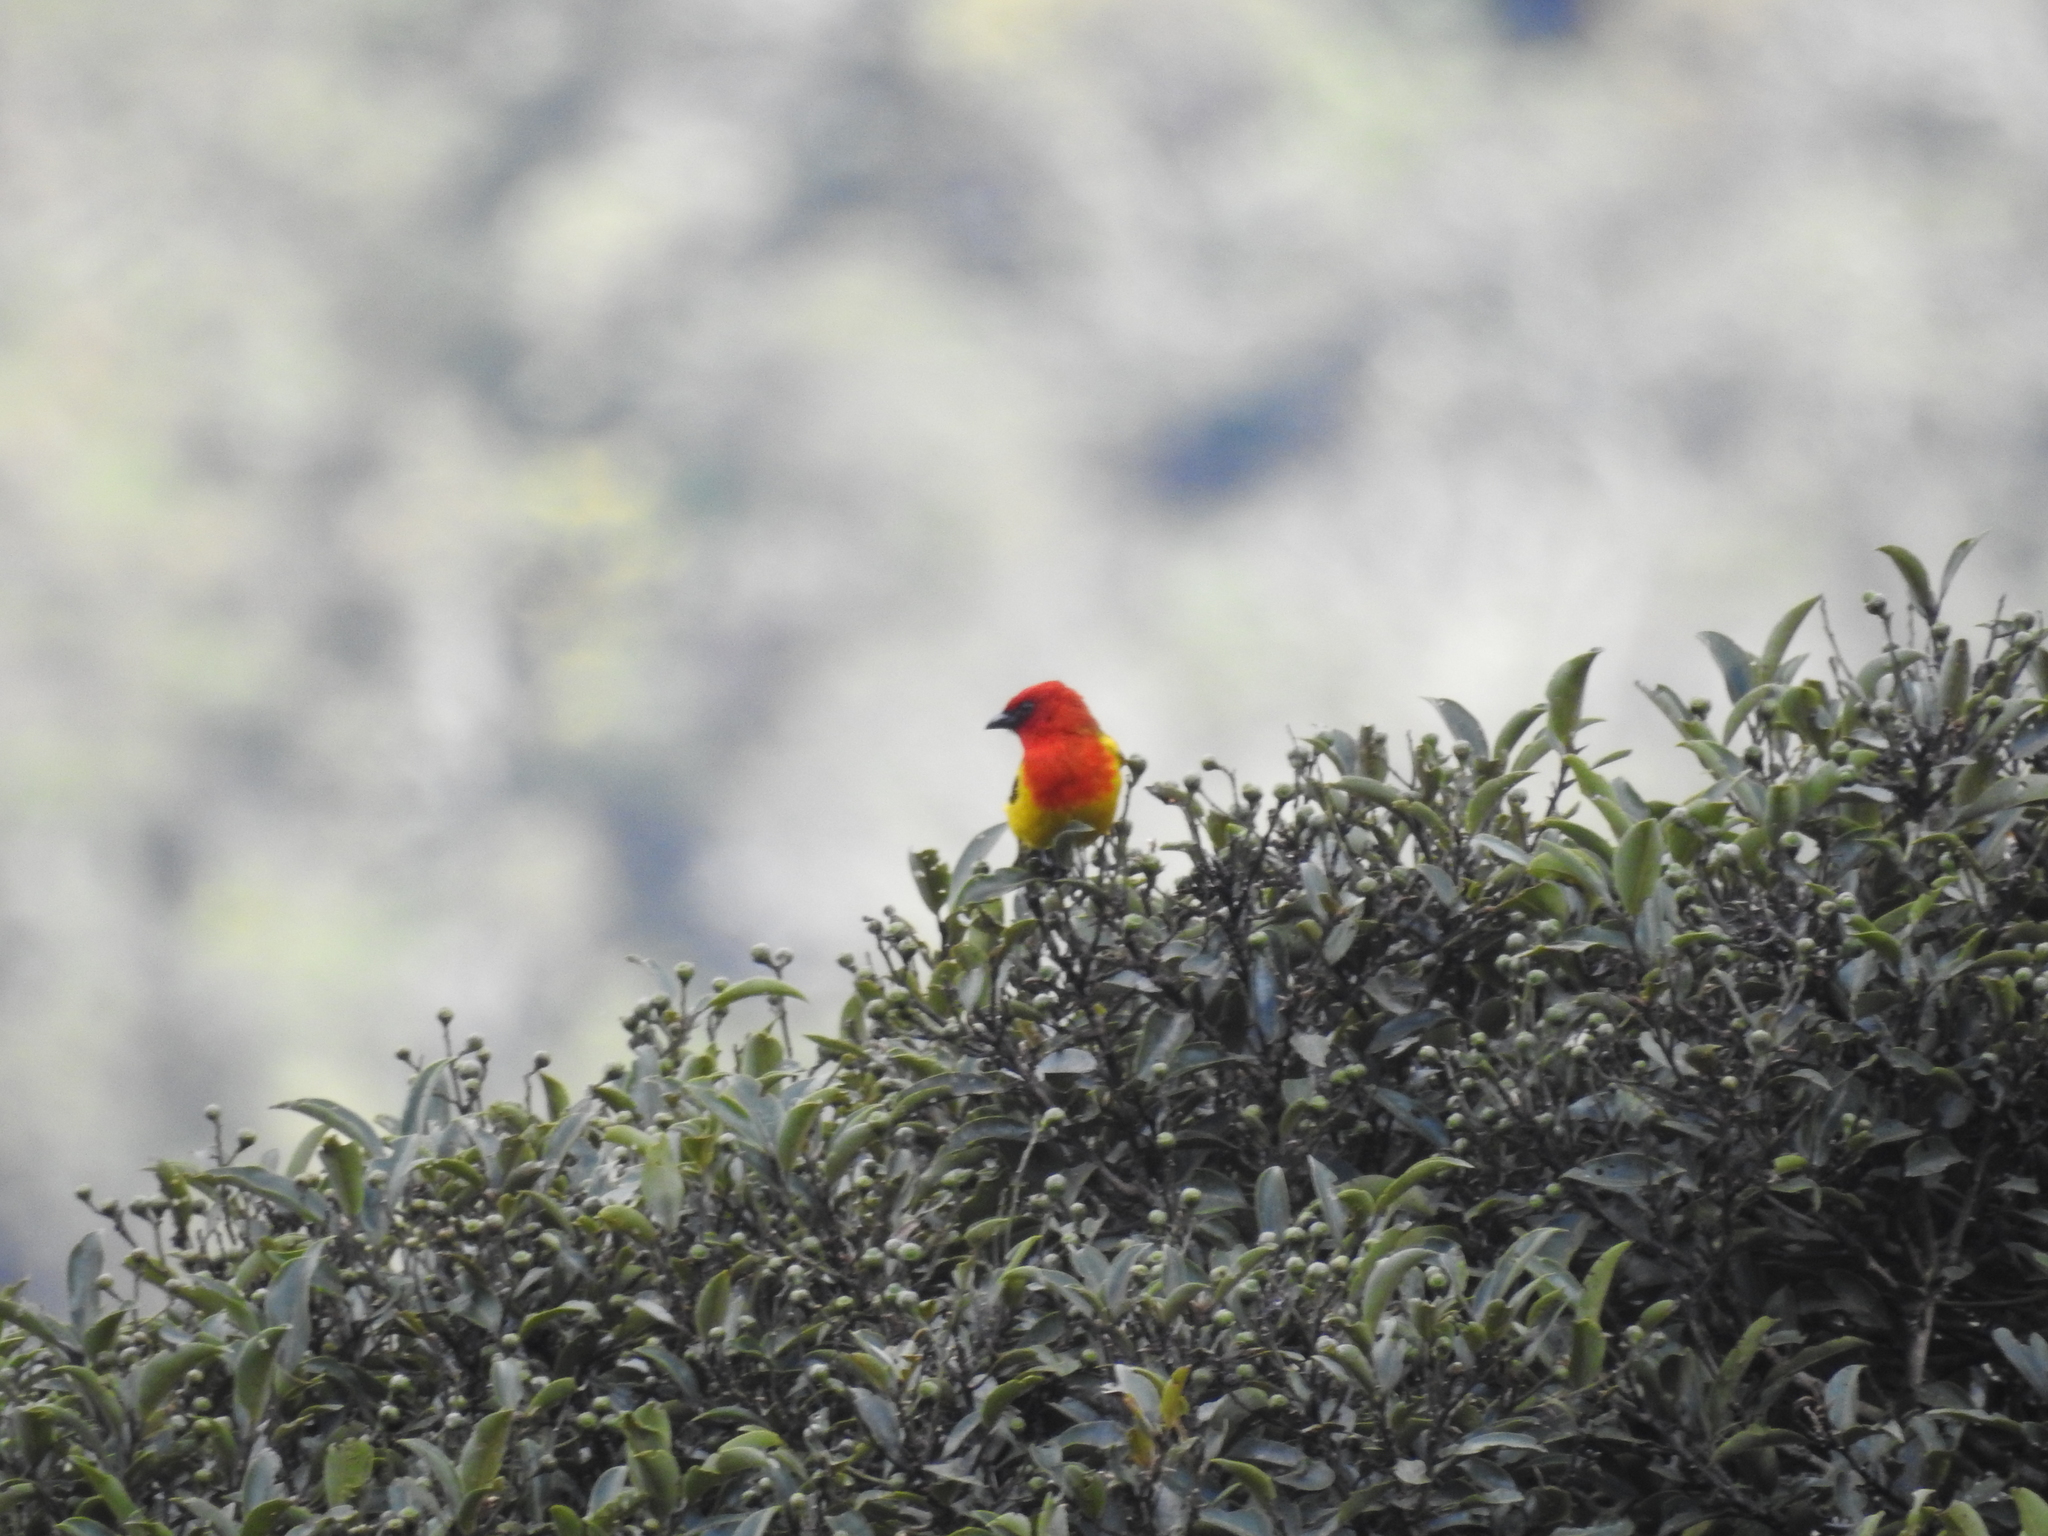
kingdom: Animalia
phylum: Chordata
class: Aves
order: Passeriformes
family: Cardinalidae
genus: Piranga
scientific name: Piranga rubriceps
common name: Red-hooded tanager
